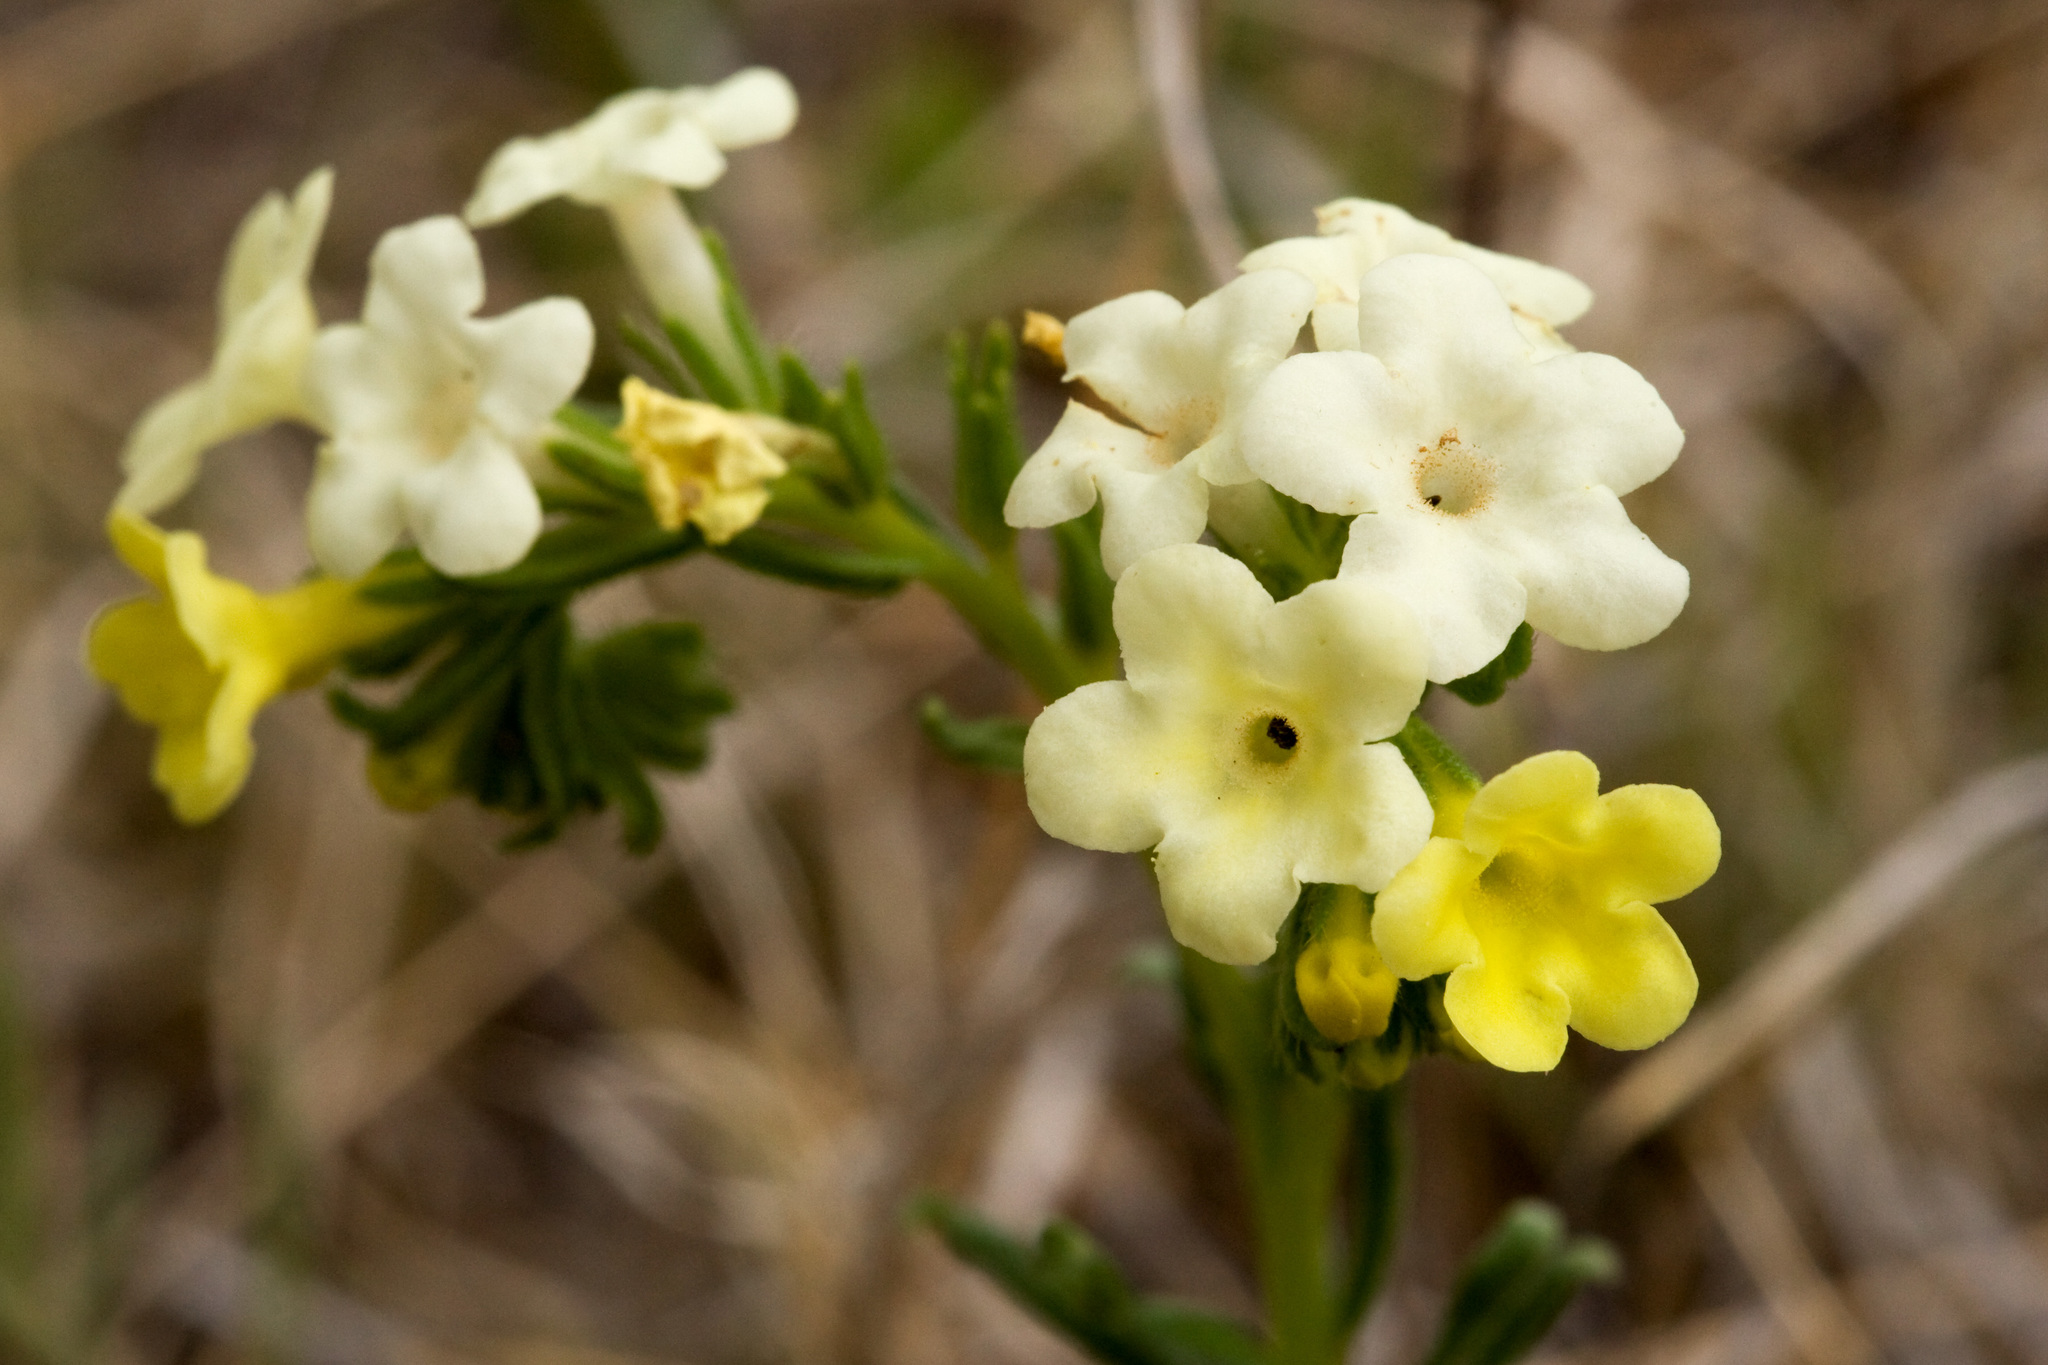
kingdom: Plantae
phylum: Tracheophyta
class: Magnoliopsida
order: Boraginales
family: Boraginaceae
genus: Lithospermum
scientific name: Lithospermum cobrense
